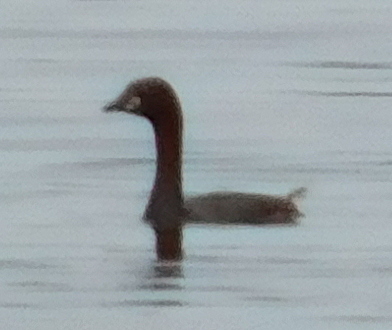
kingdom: Animalia
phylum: Chordata
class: Aves
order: Podicipediformes
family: Podicipedidae
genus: Tachybaptus
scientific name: Tachybaptus ruficollis
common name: Little grebe
